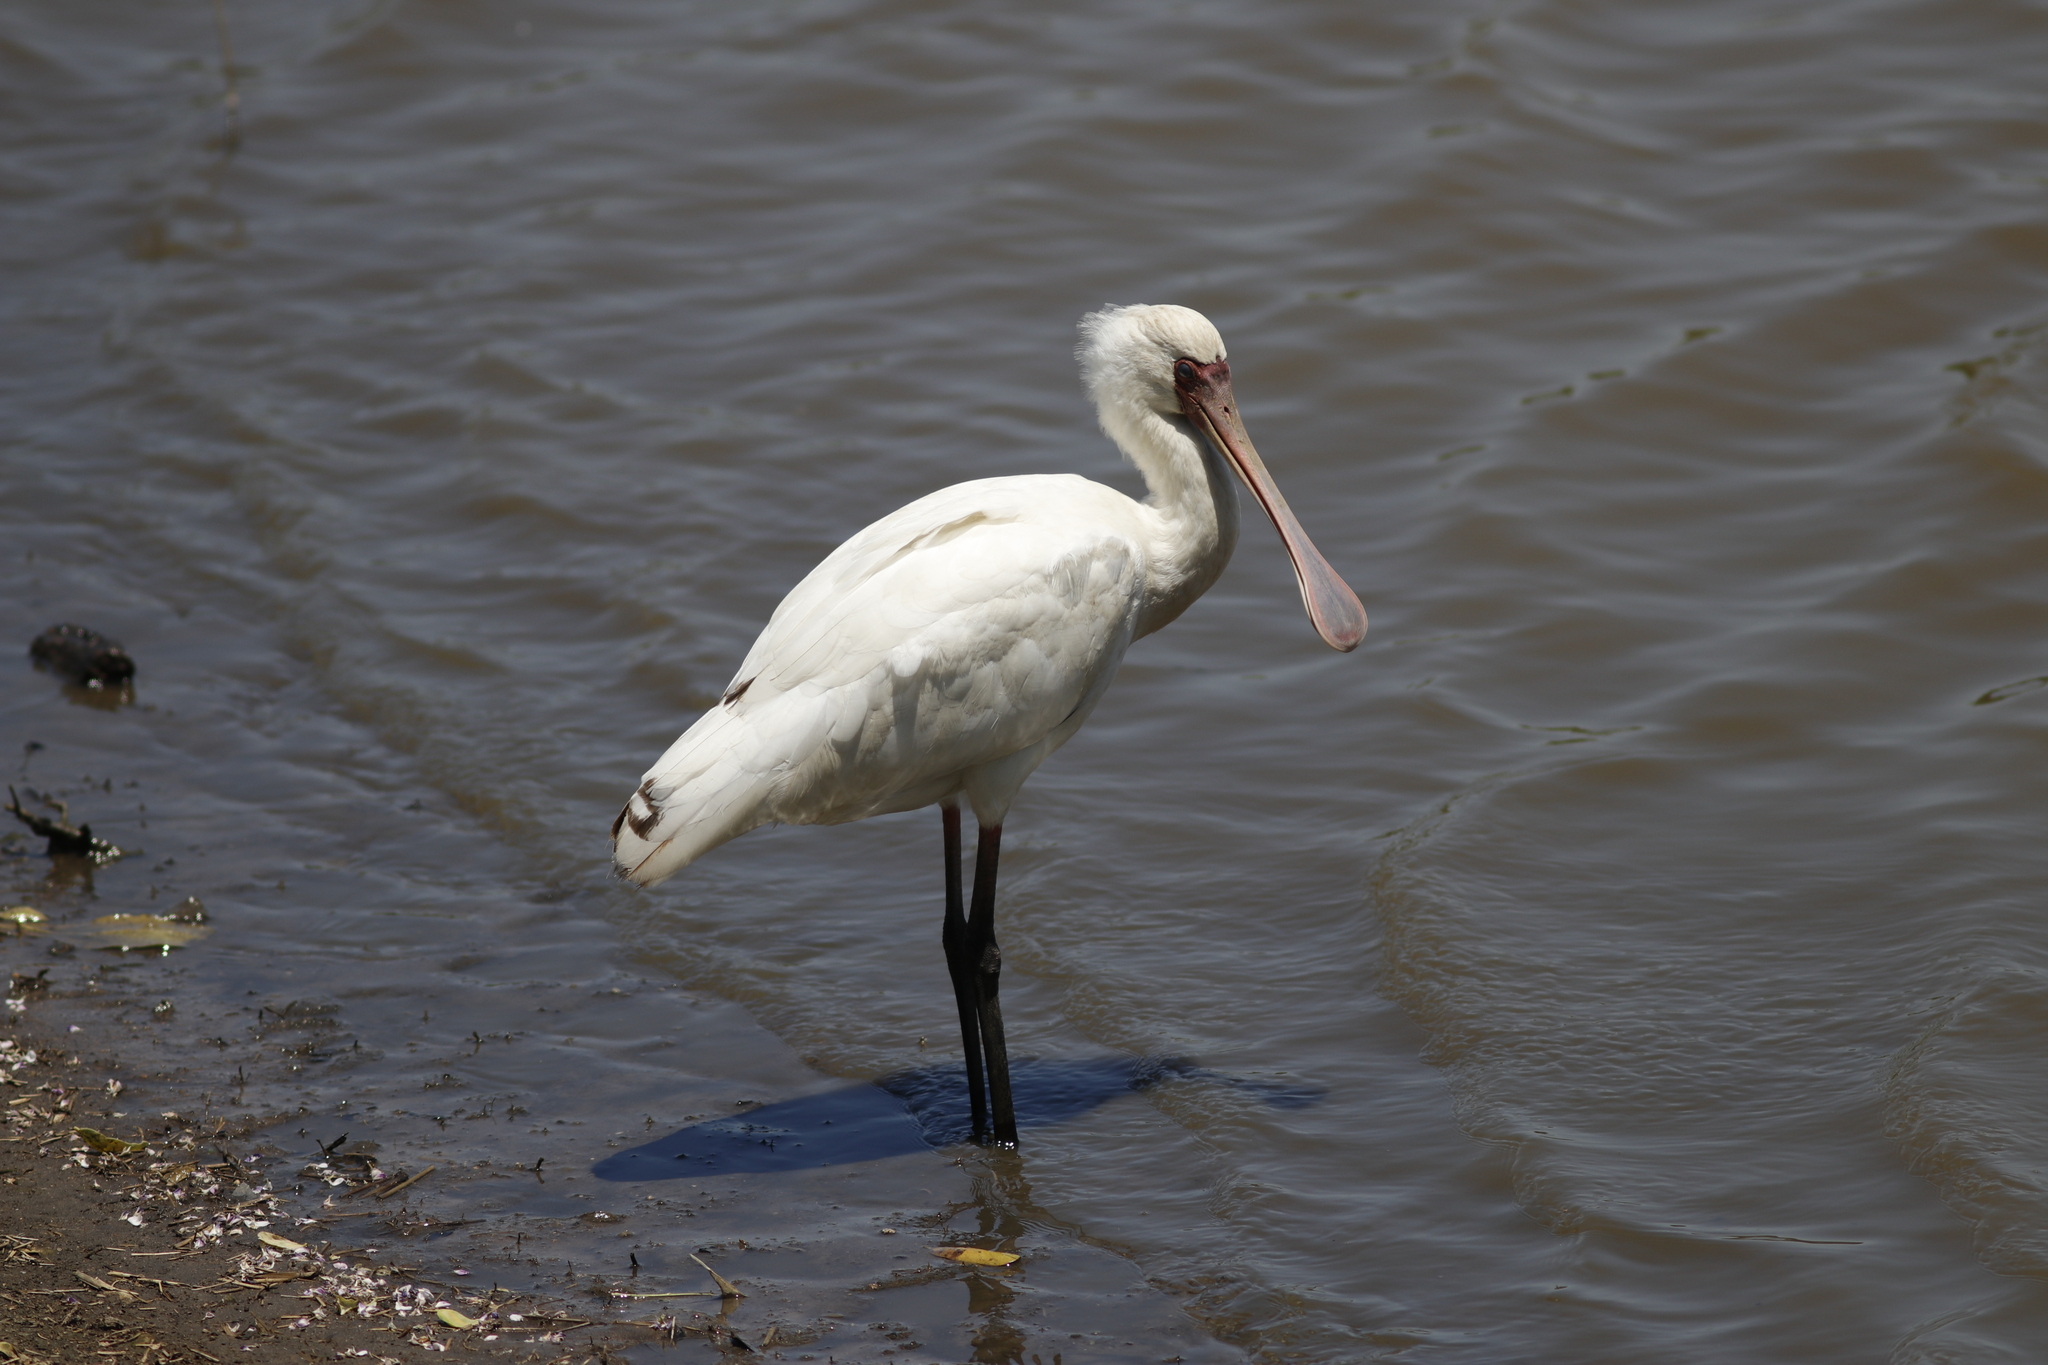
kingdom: Animalia
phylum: Chordata
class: Aves
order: Pelecaniformes
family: Threskiornithidae
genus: Platalea
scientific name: Platalea alba
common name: African spoonbill
